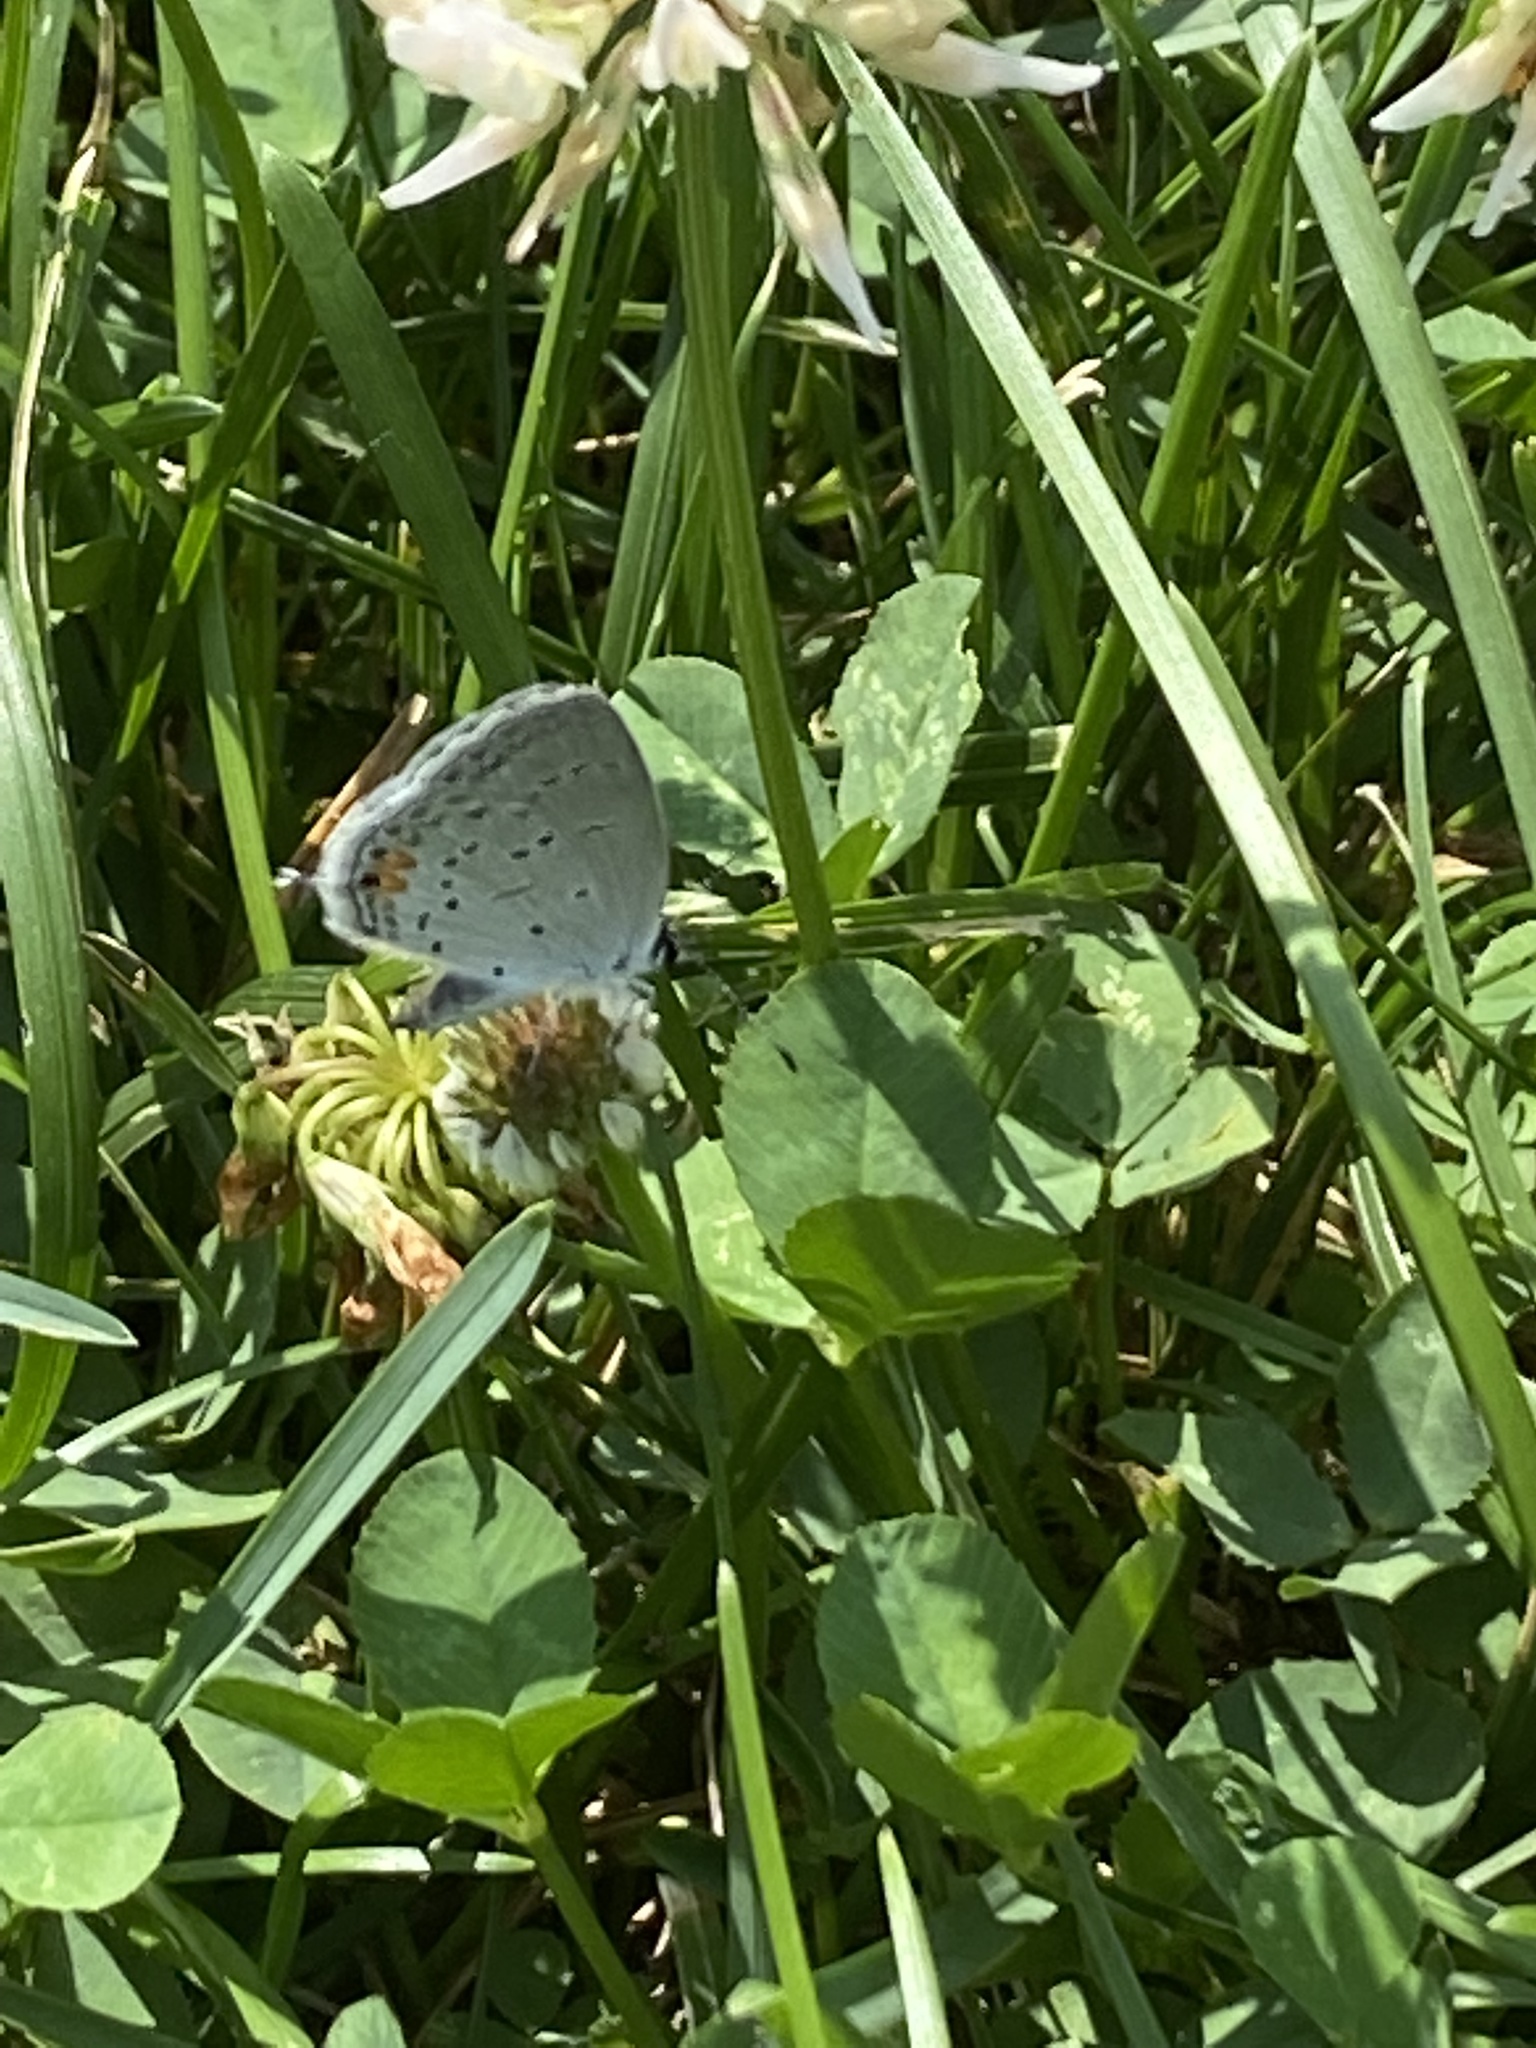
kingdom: Animalia
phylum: Arthropoda
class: Insecta
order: Lepidoptera
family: Lycaenidae
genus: Elkalyce
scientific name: Elkalyce comyntas
